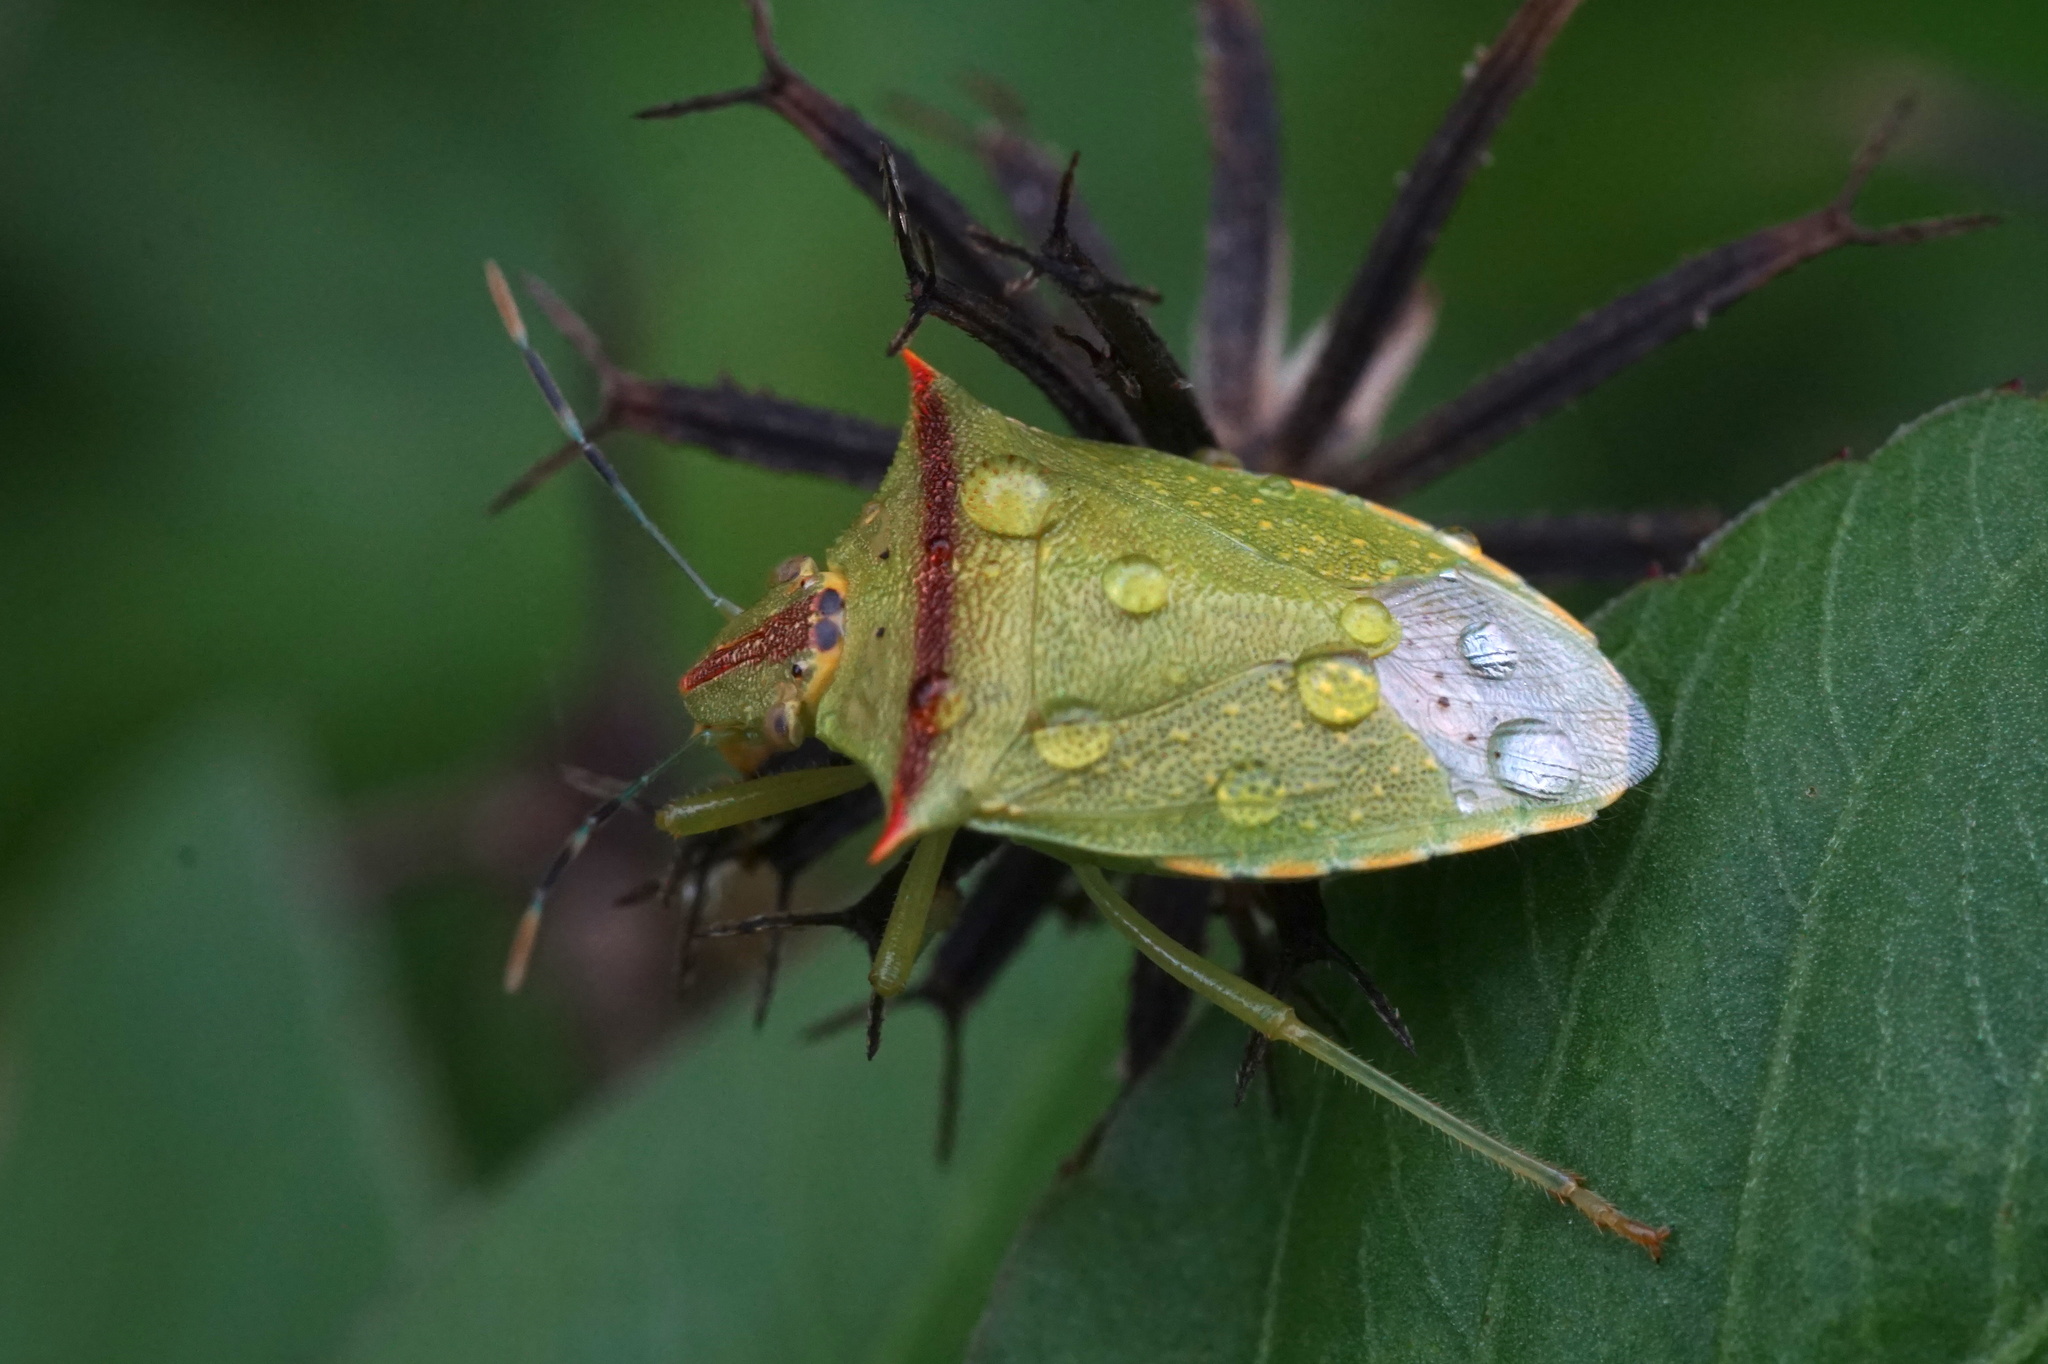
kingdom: Animalia
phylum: Arthropoda
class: Insecta
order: Hemiptera
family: Pentatomidae
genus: Thyanta
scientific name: Thyanta perditor
